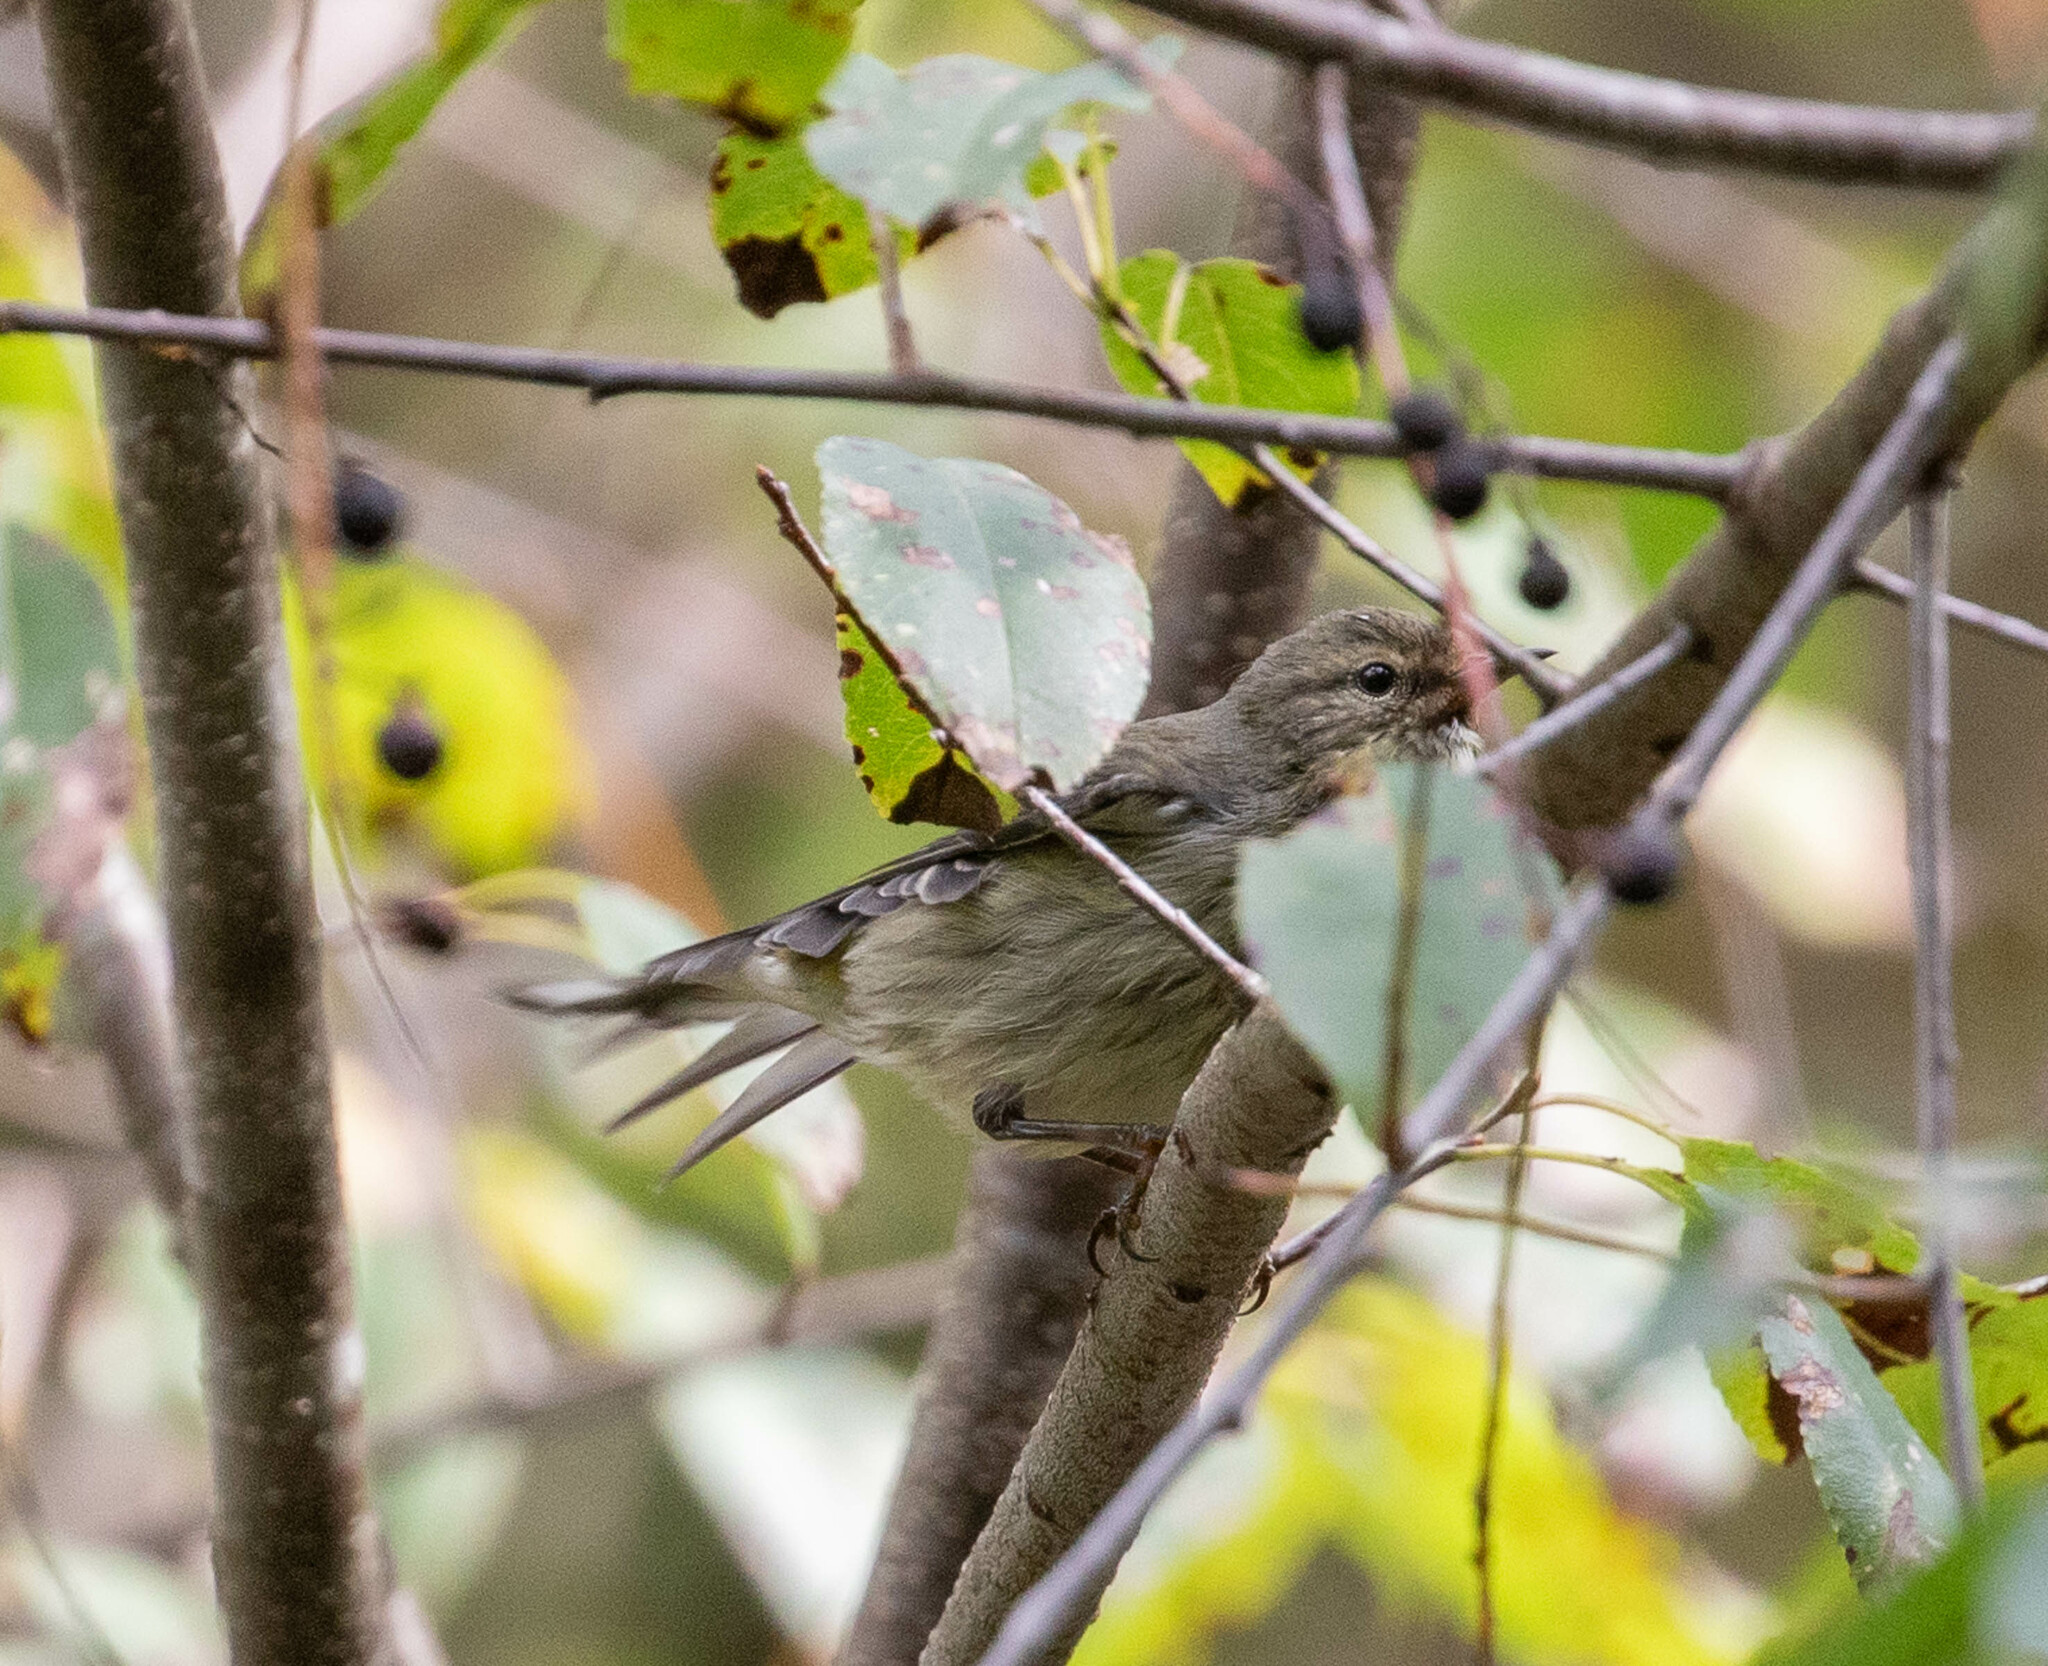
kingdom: Animalia
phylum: Chordata
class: Aves
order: Passeriformes
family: Parulidae
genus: Setophaga
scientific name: Setophaga tigrina
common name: Cape may warbler
